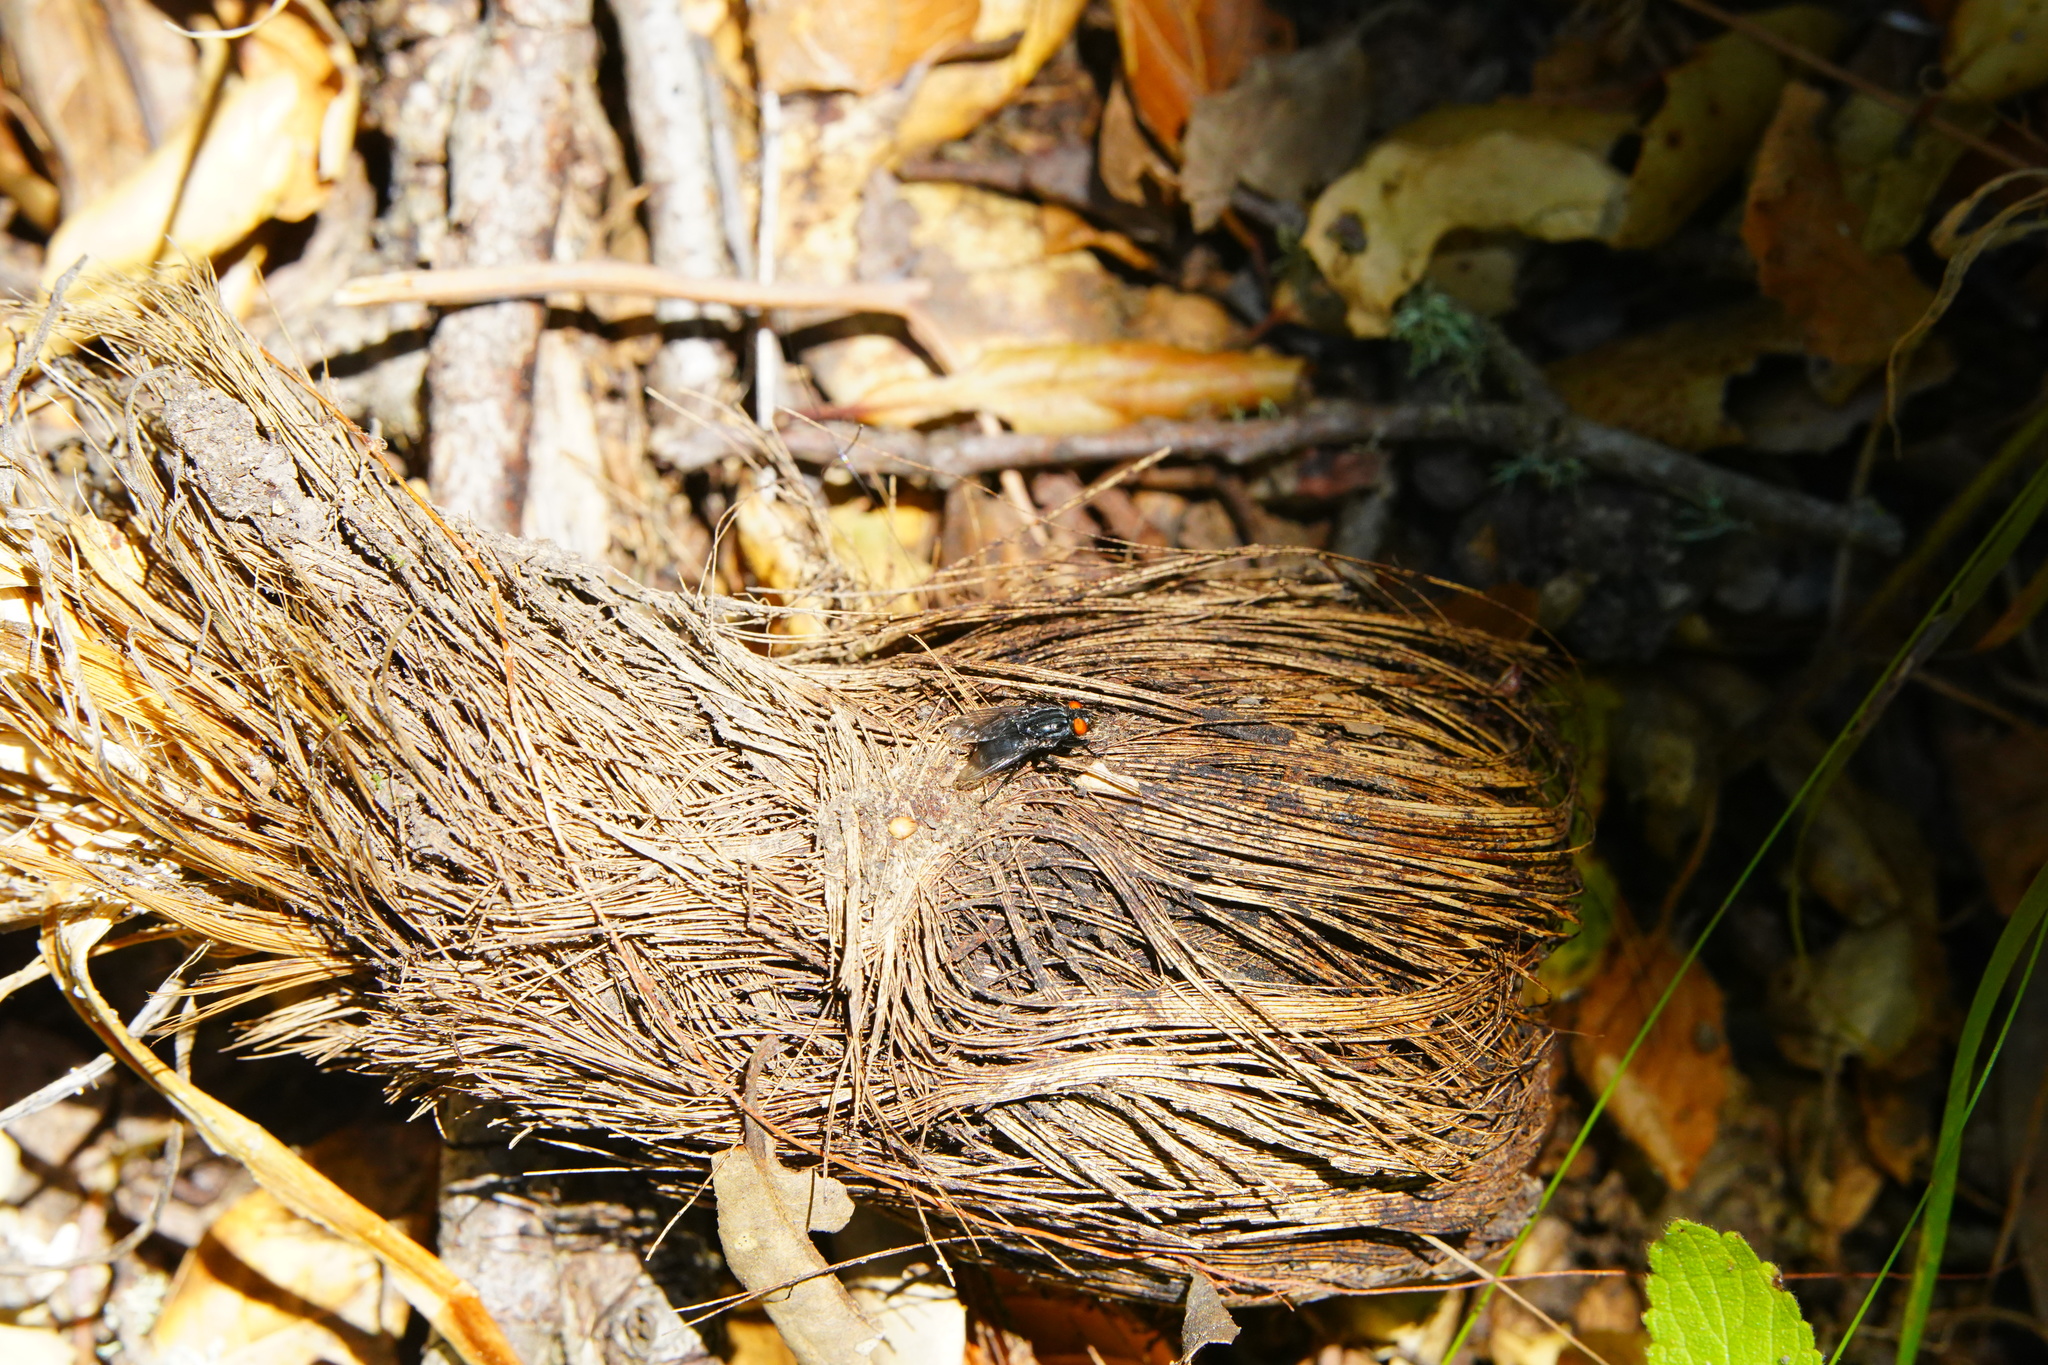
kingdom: Plantae
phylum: Tracheophyta
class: Liliopsida
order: Asparagales
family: Asparagaceae
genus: Chlorogalum
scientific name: Chlorogalum pomeridianum
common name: Amole
